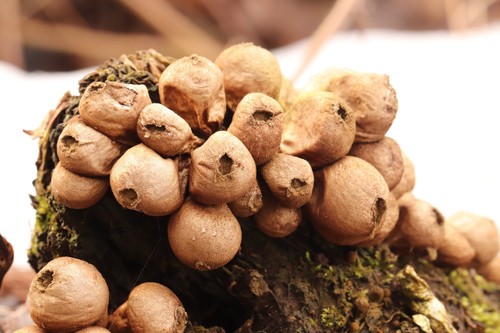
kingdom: Fungi
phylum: Basidiomycota
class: Agaricomycetes
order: Agaricales
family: Lycoperdaceae
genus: Apioperdon
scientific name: Apioperdon pyriforme
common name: Pear-shaped puffball
